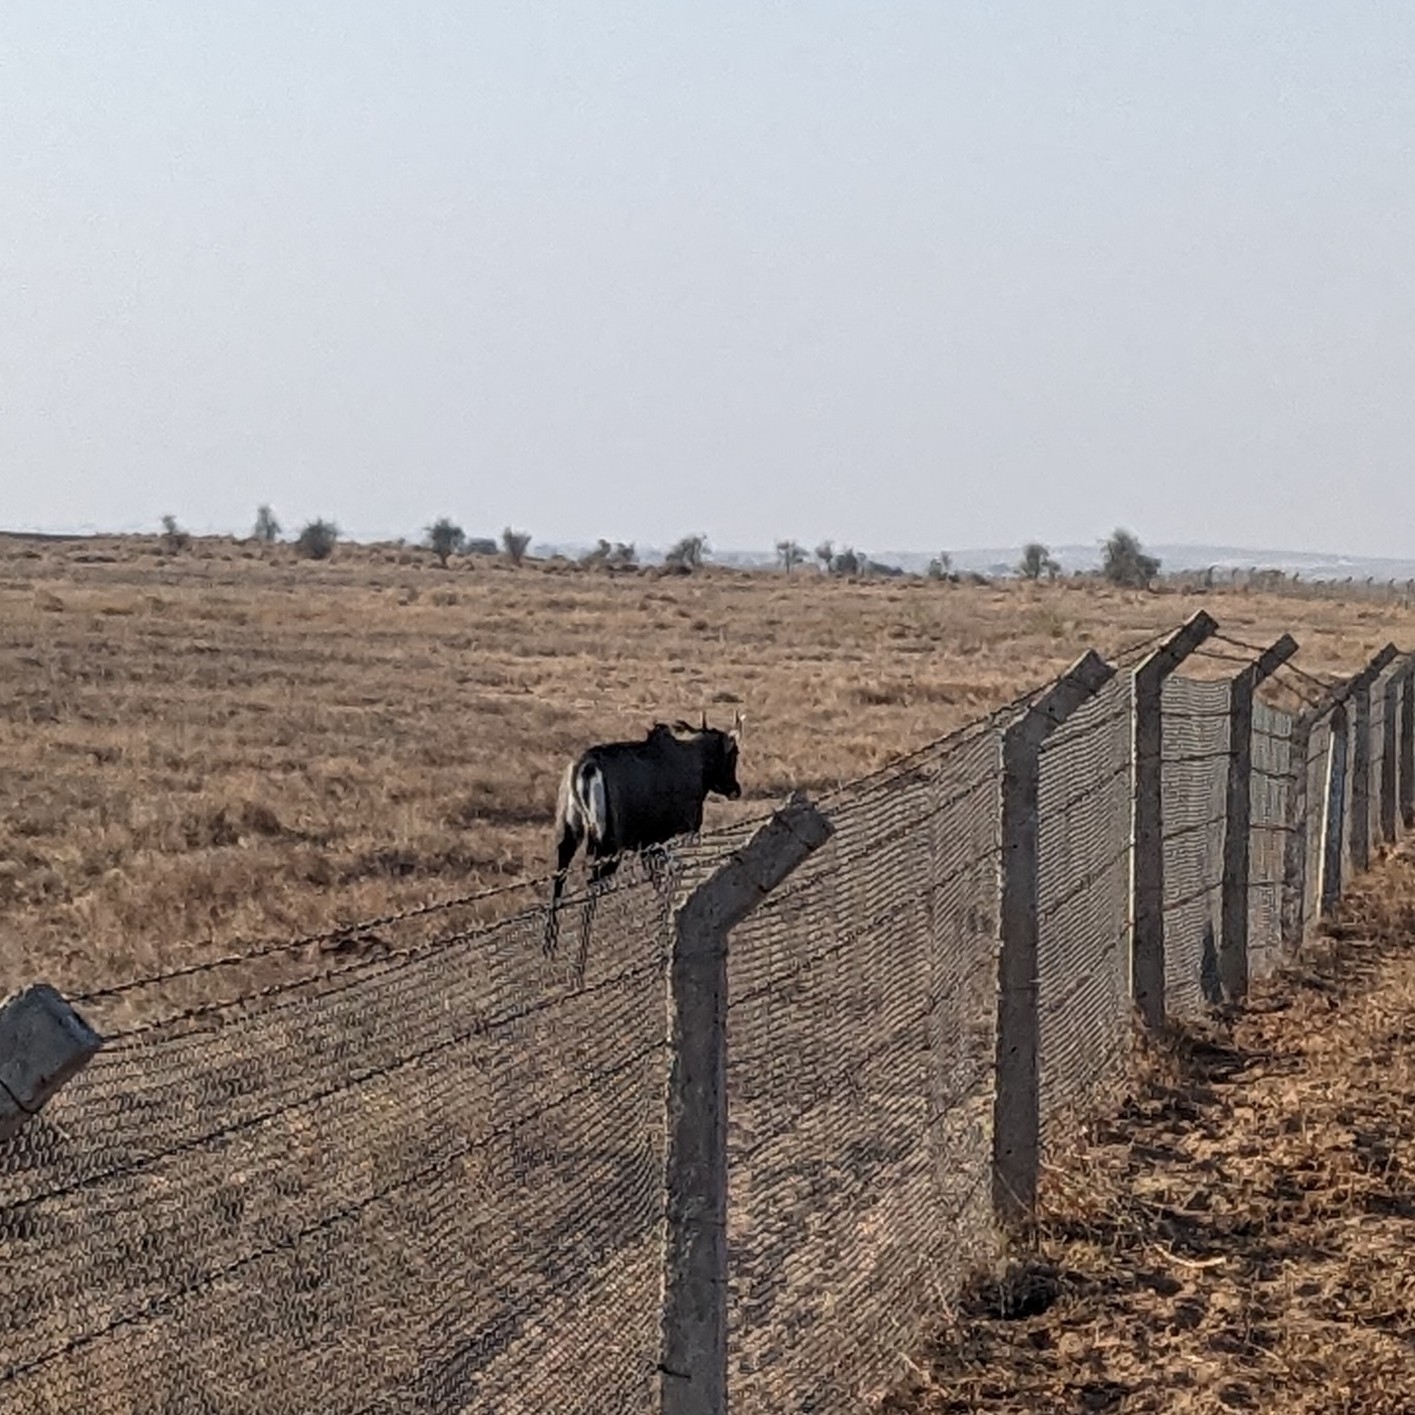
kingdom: Animalia
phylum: Chordata
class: Mammalia
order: Artiodactyla
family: Bovidae
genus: Boselaphus
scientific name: Boselaphus tragocamelus
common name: Nilgai
